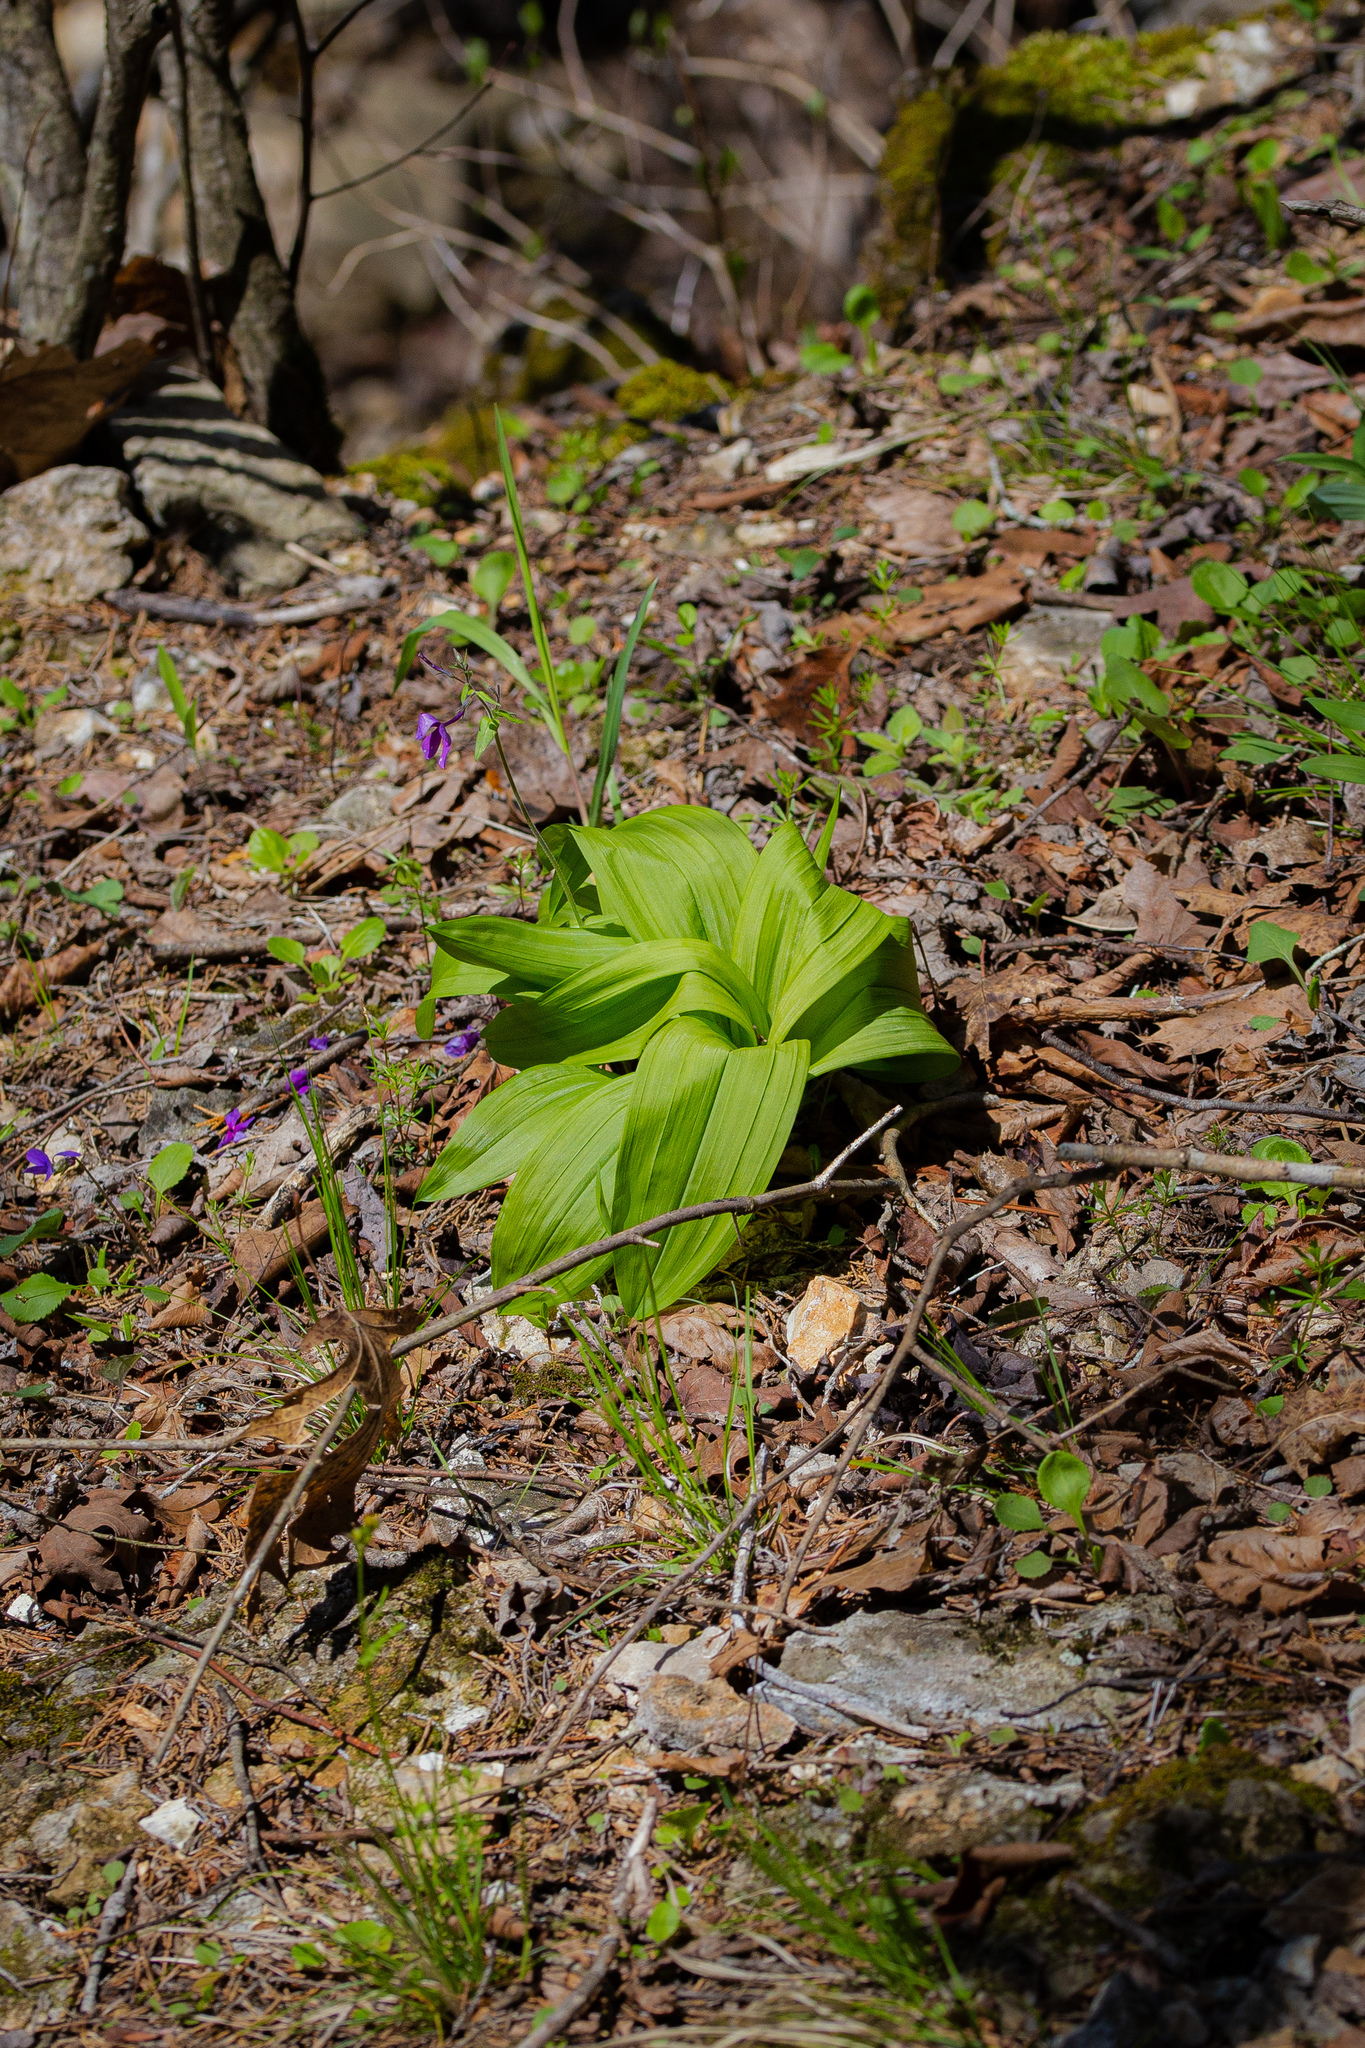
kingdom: Plantae
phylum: Tracheophyta
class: Liliopsida
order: Liliales
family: Melanthiaceae
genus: Veratrum
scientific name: Veratrum woodii
